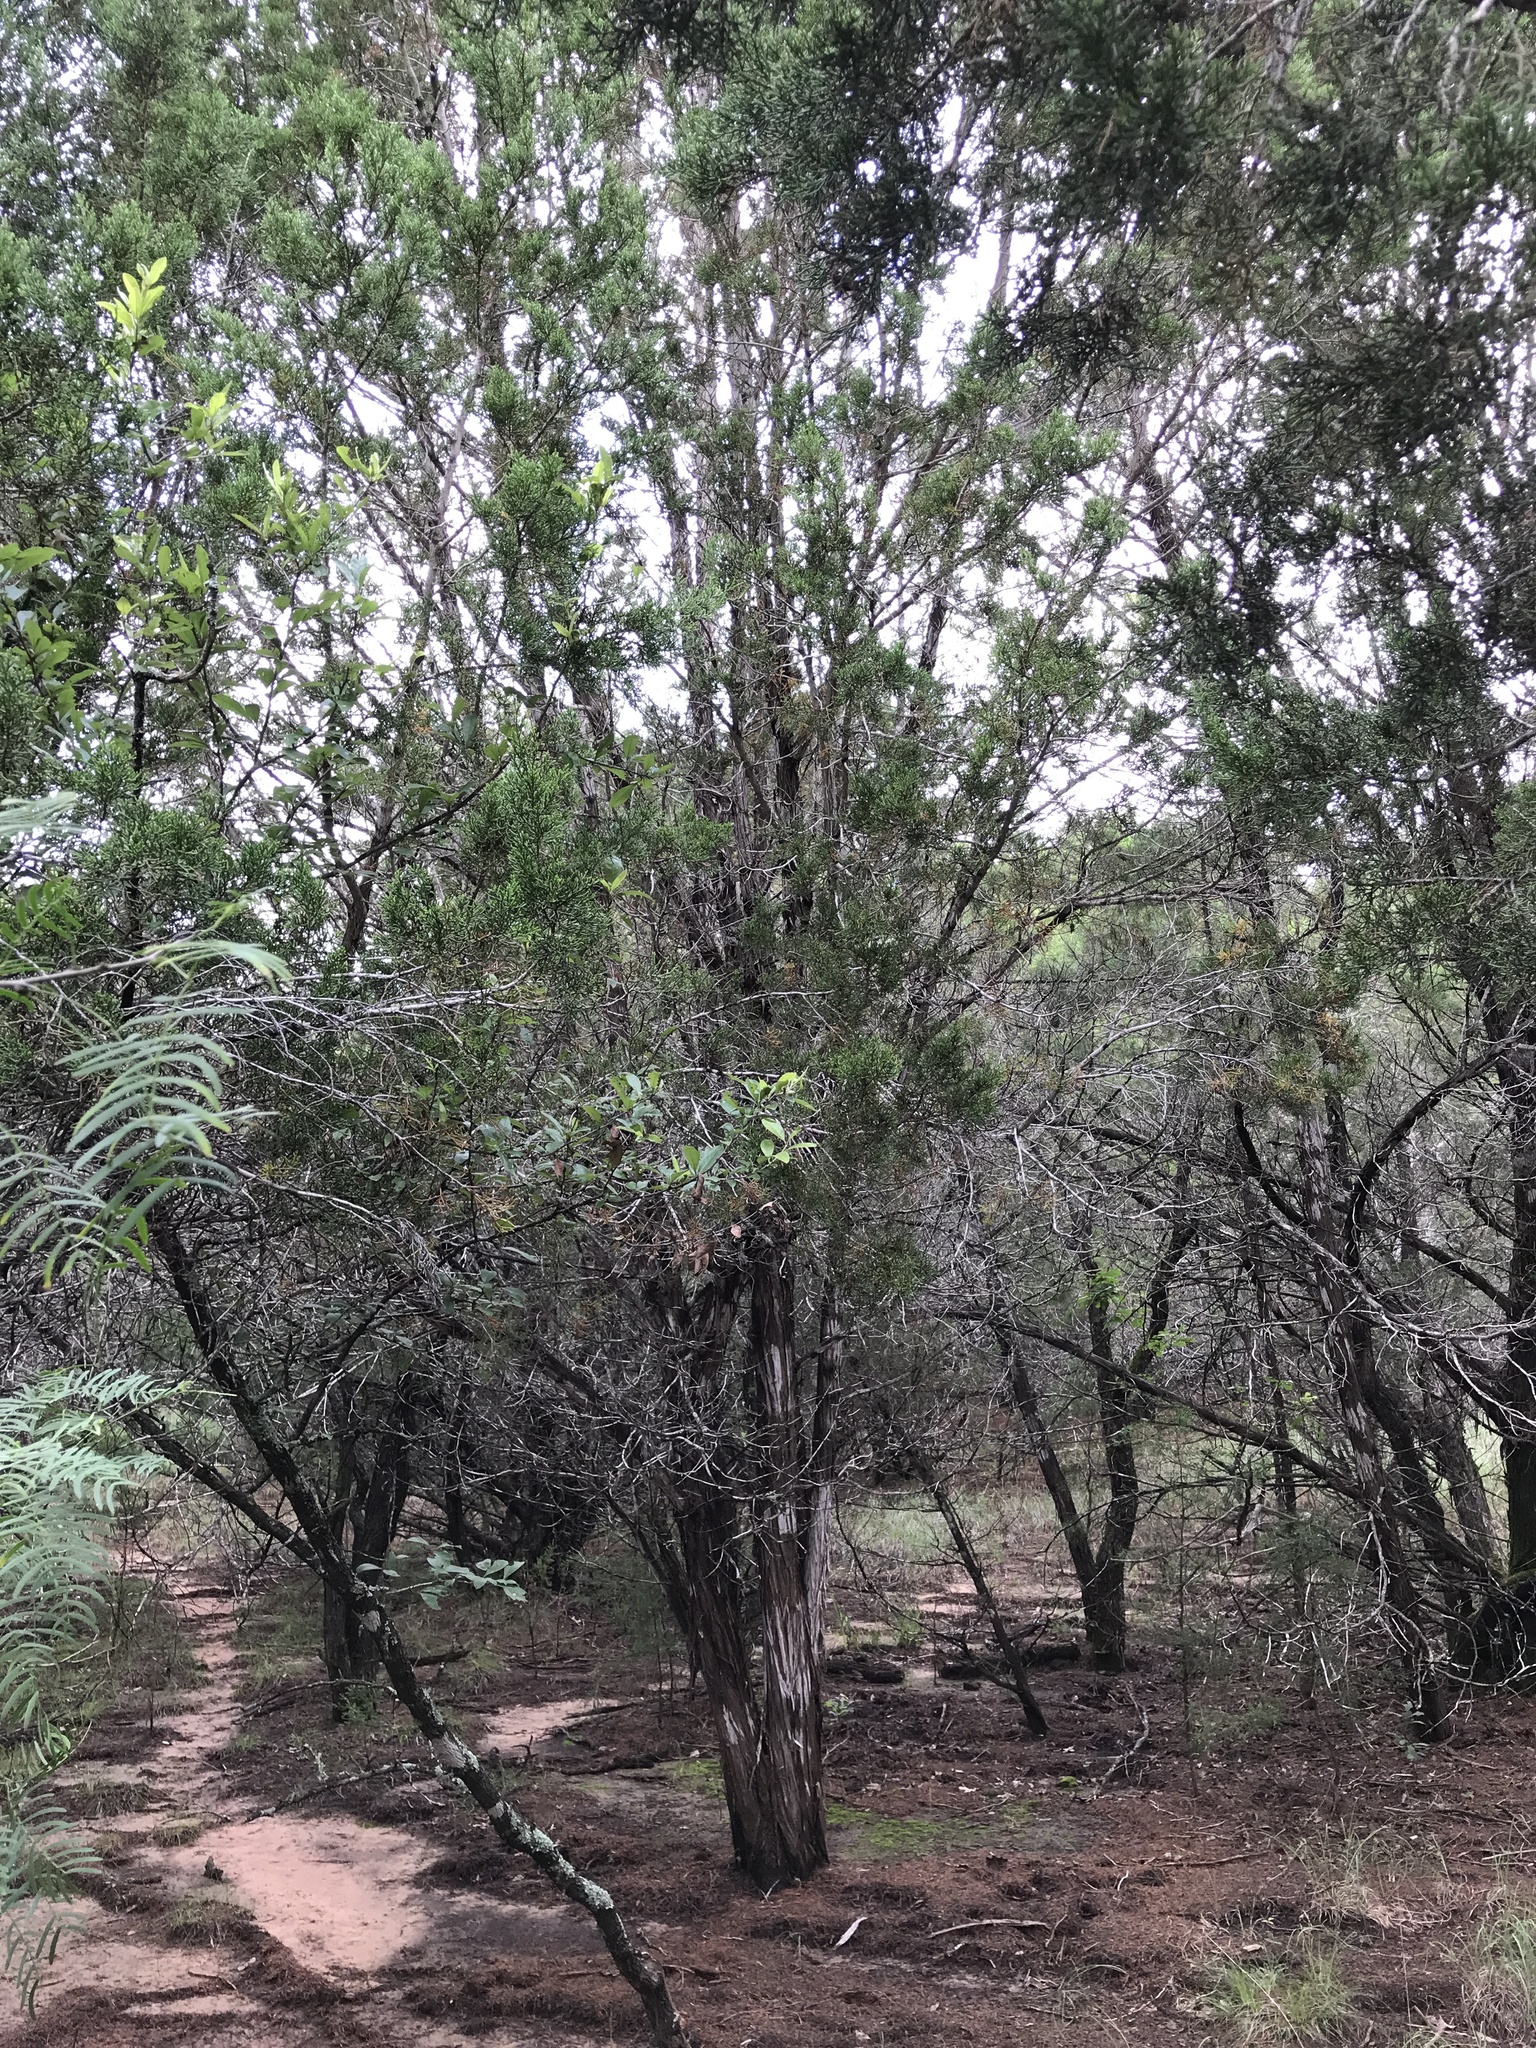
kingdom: Plantae
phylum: Tracheophyta
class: Pinopsida
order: Pinales
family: Cupressaceae
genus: Juniperus
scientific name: Juniperus ashei
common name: Mexican juniper
